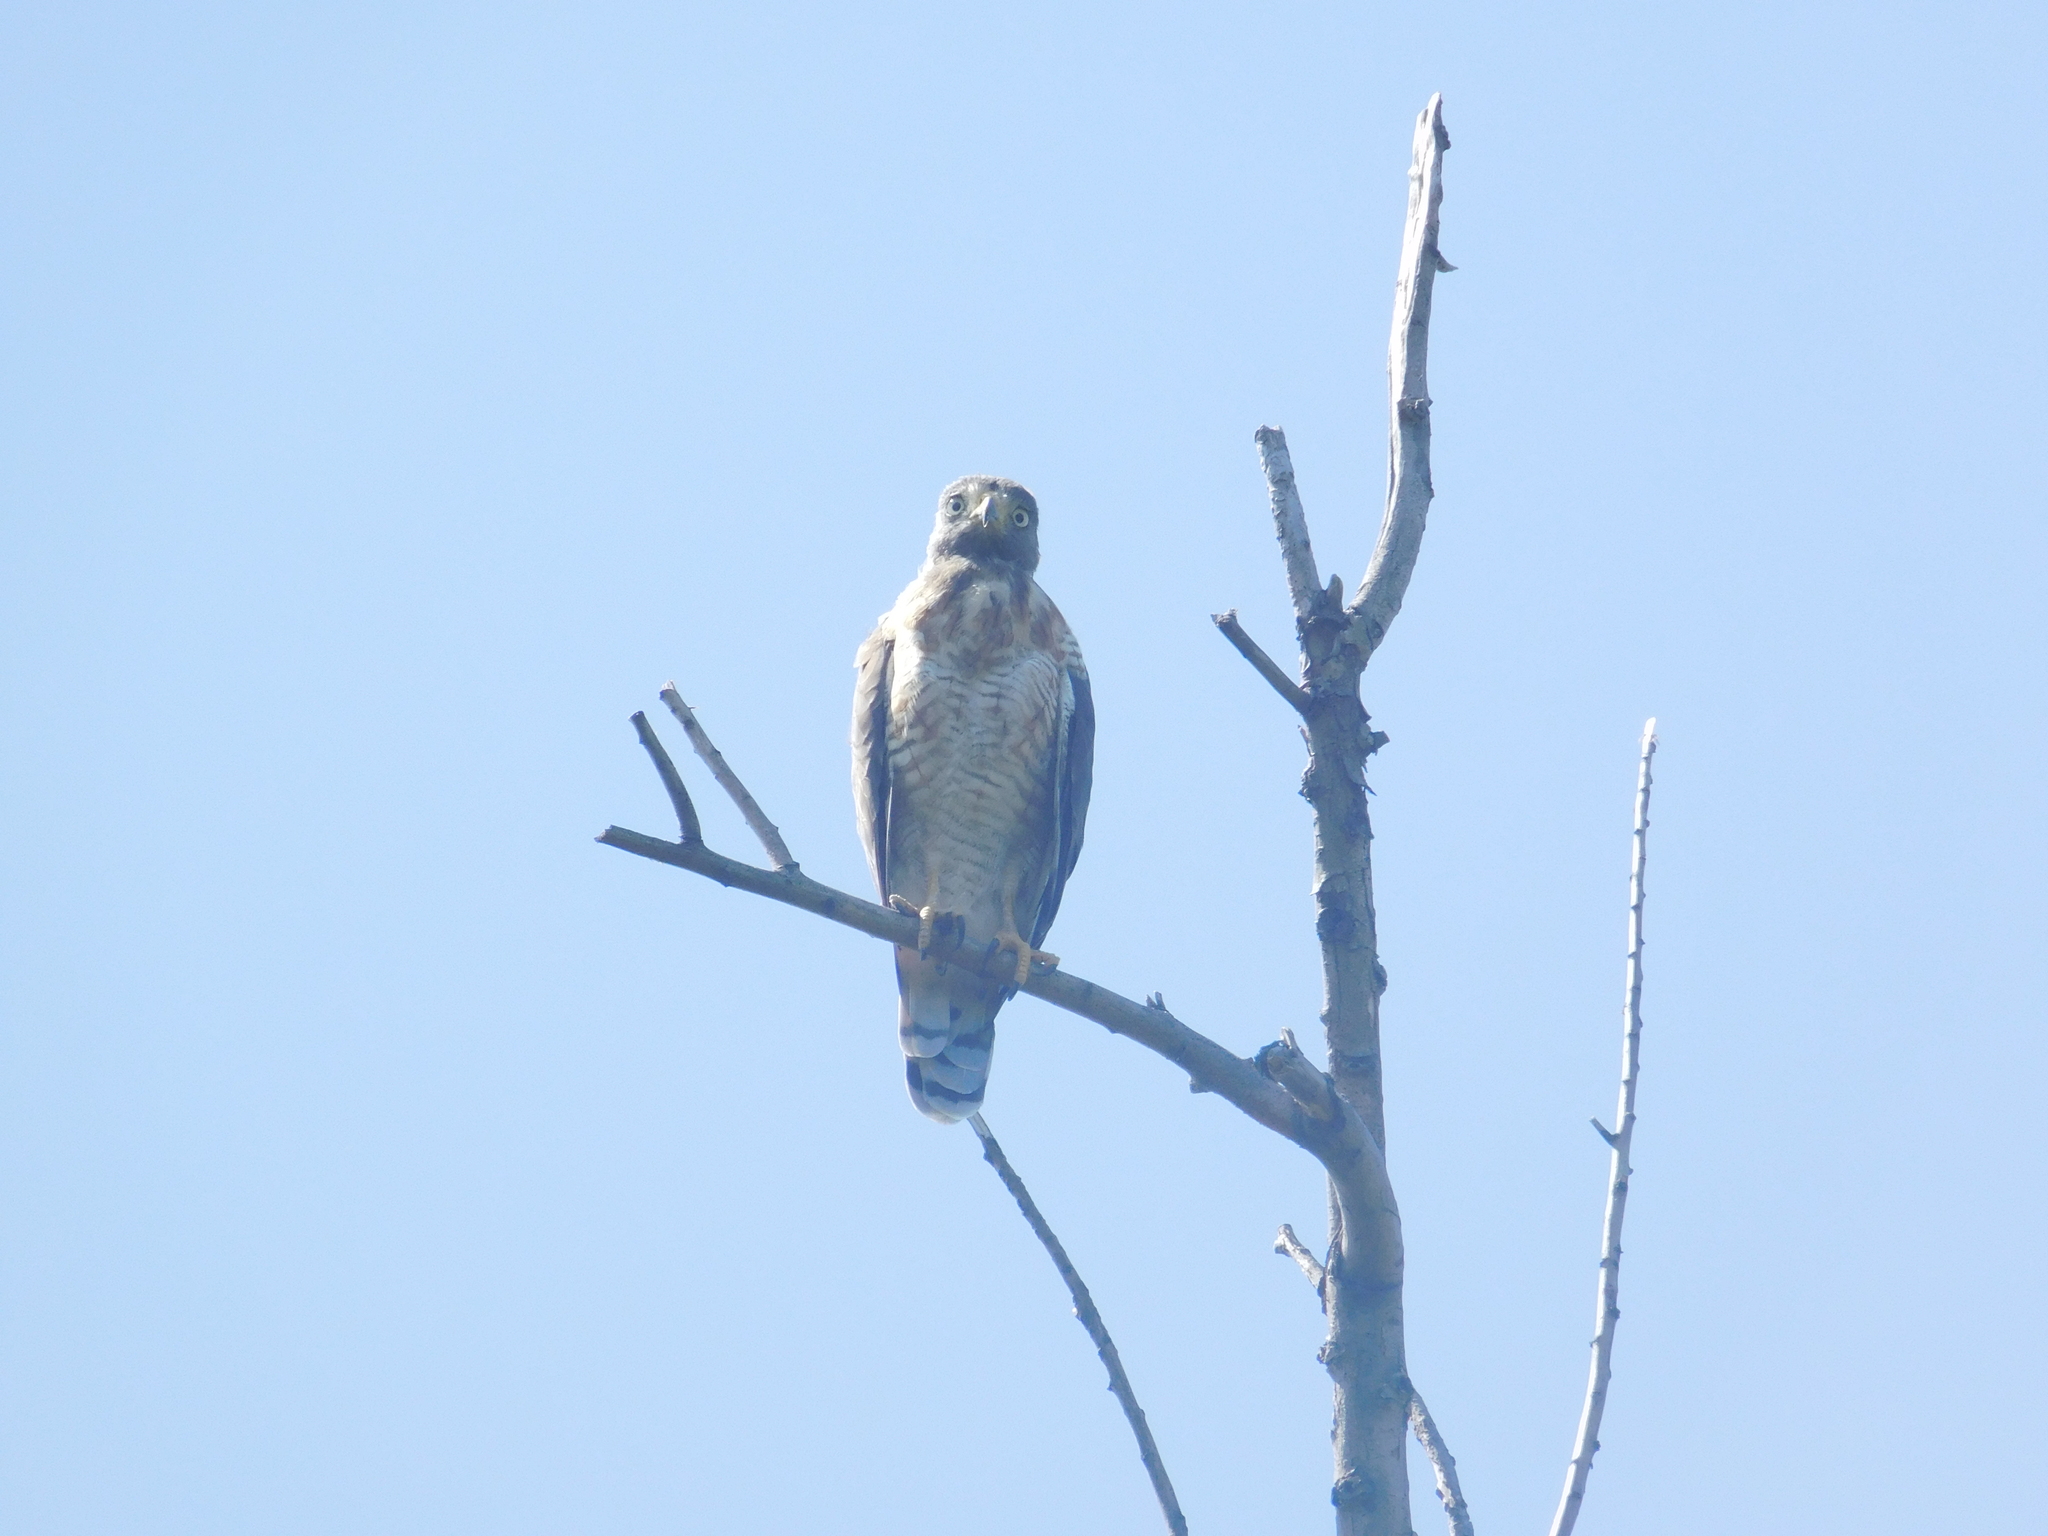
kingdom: Animalia
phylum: Chordata
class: Aves
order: Accipitriformes
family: Accipitridae
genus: Rupornis
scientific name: Rupornis magnirostris
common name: Roadside hawk
